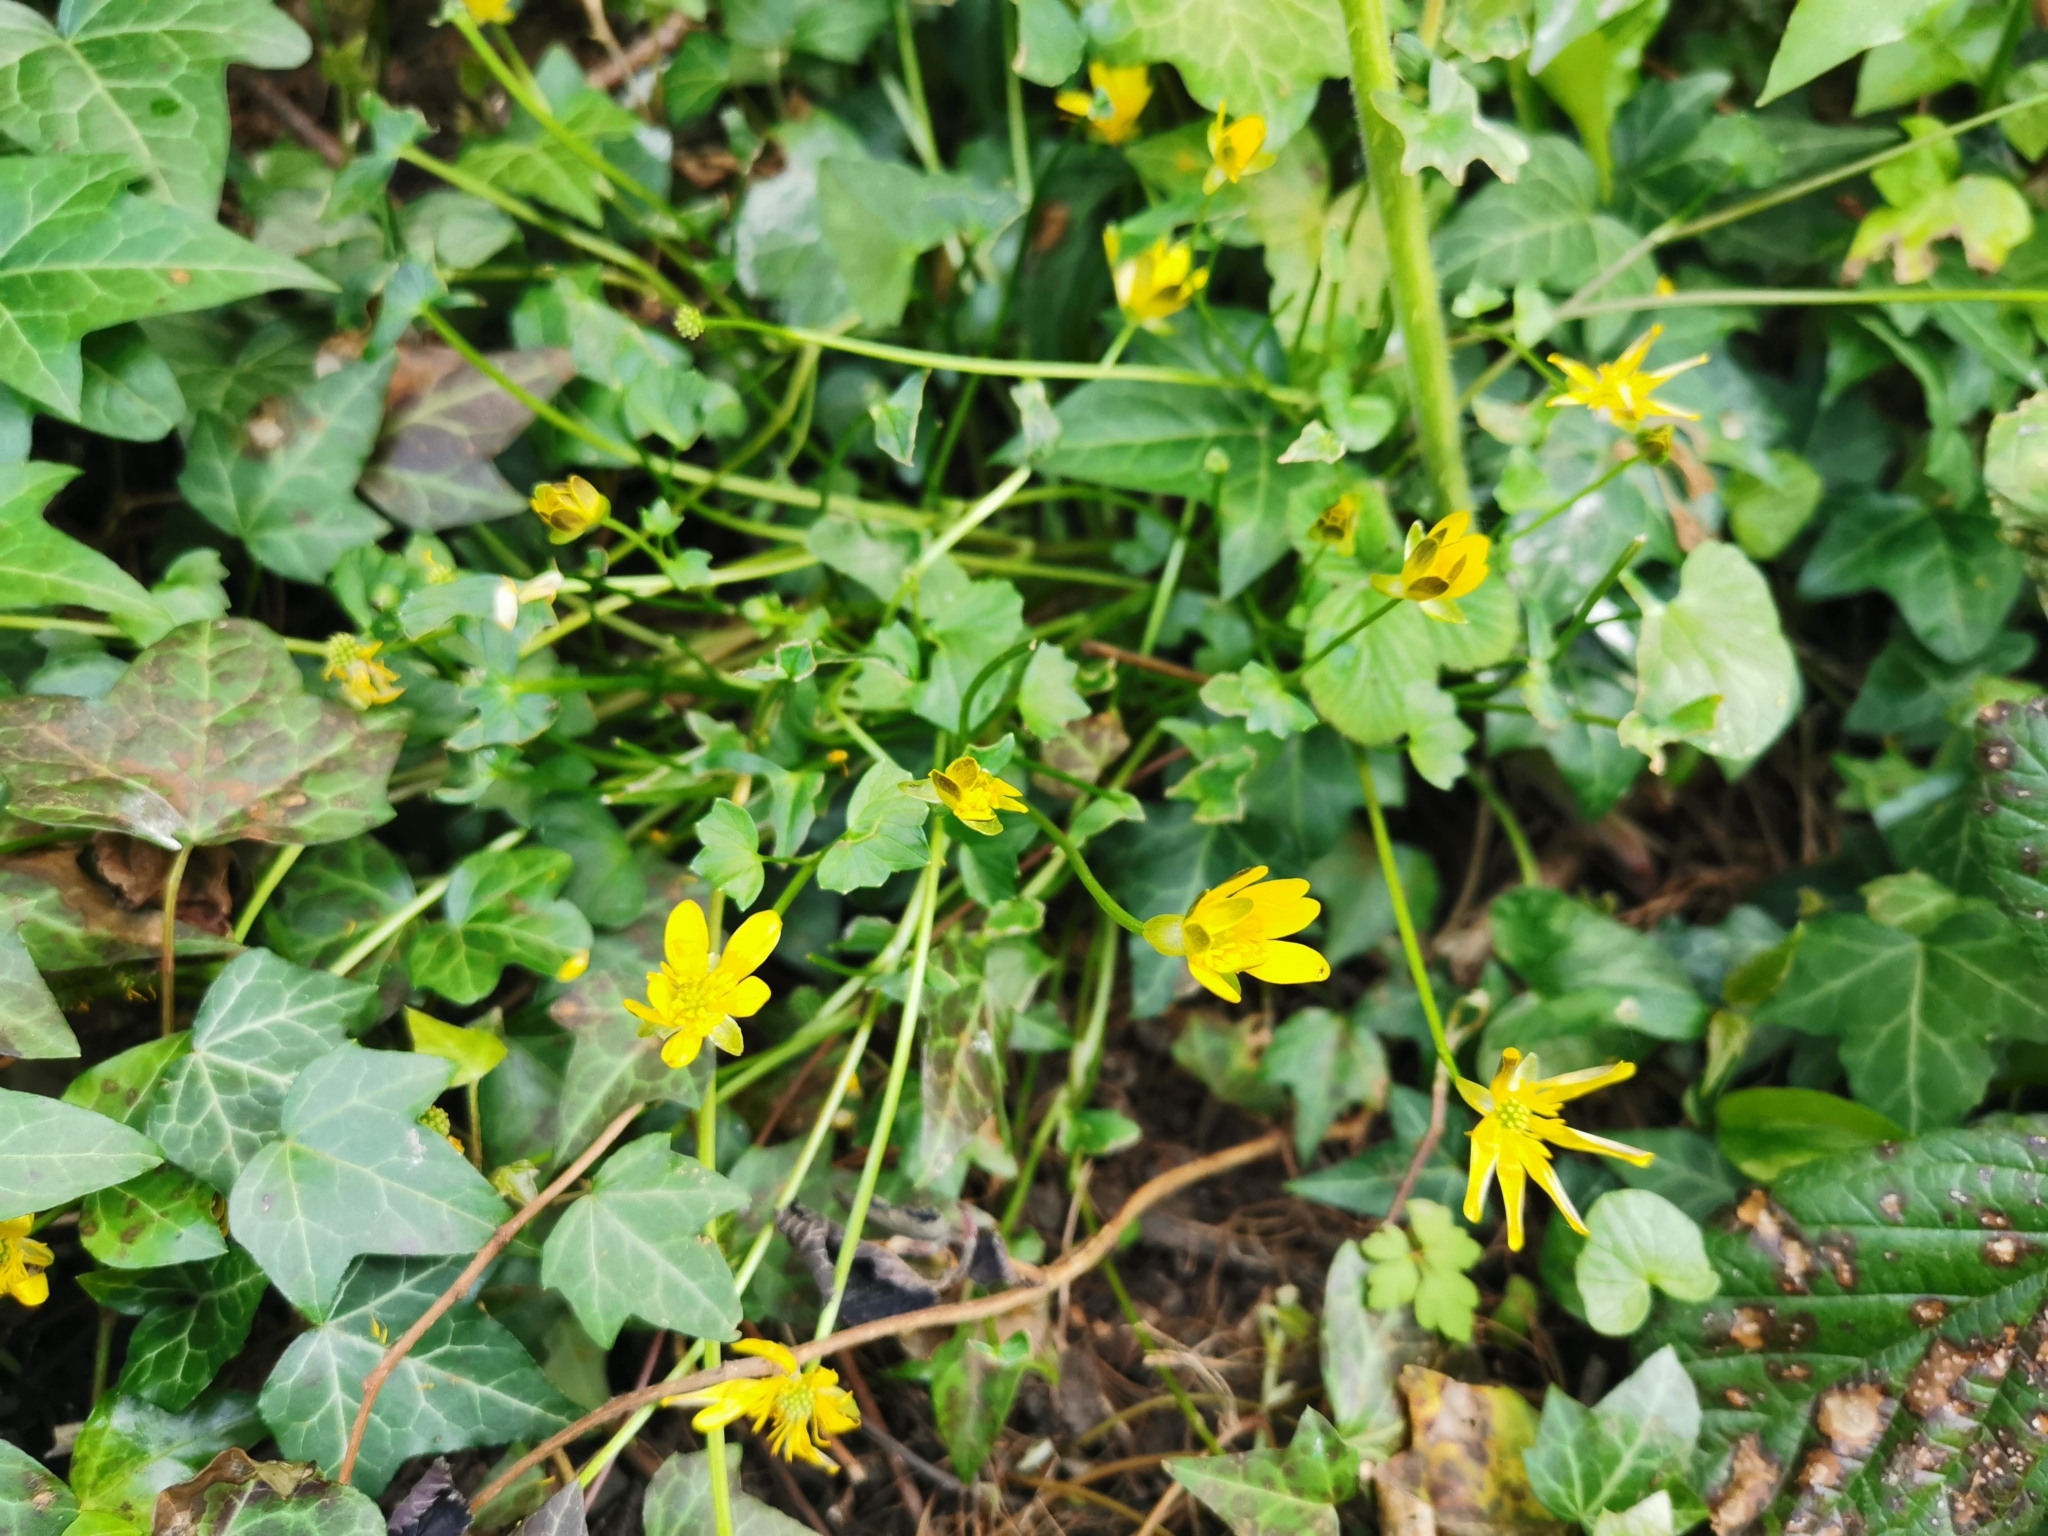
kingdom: Plantae
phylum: Tracheophyta
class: Magnoliopsida
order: Ranunculales
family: Ranunculaceae
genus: Ficaria
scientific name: Ficaria verna
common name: Lesser celandine
